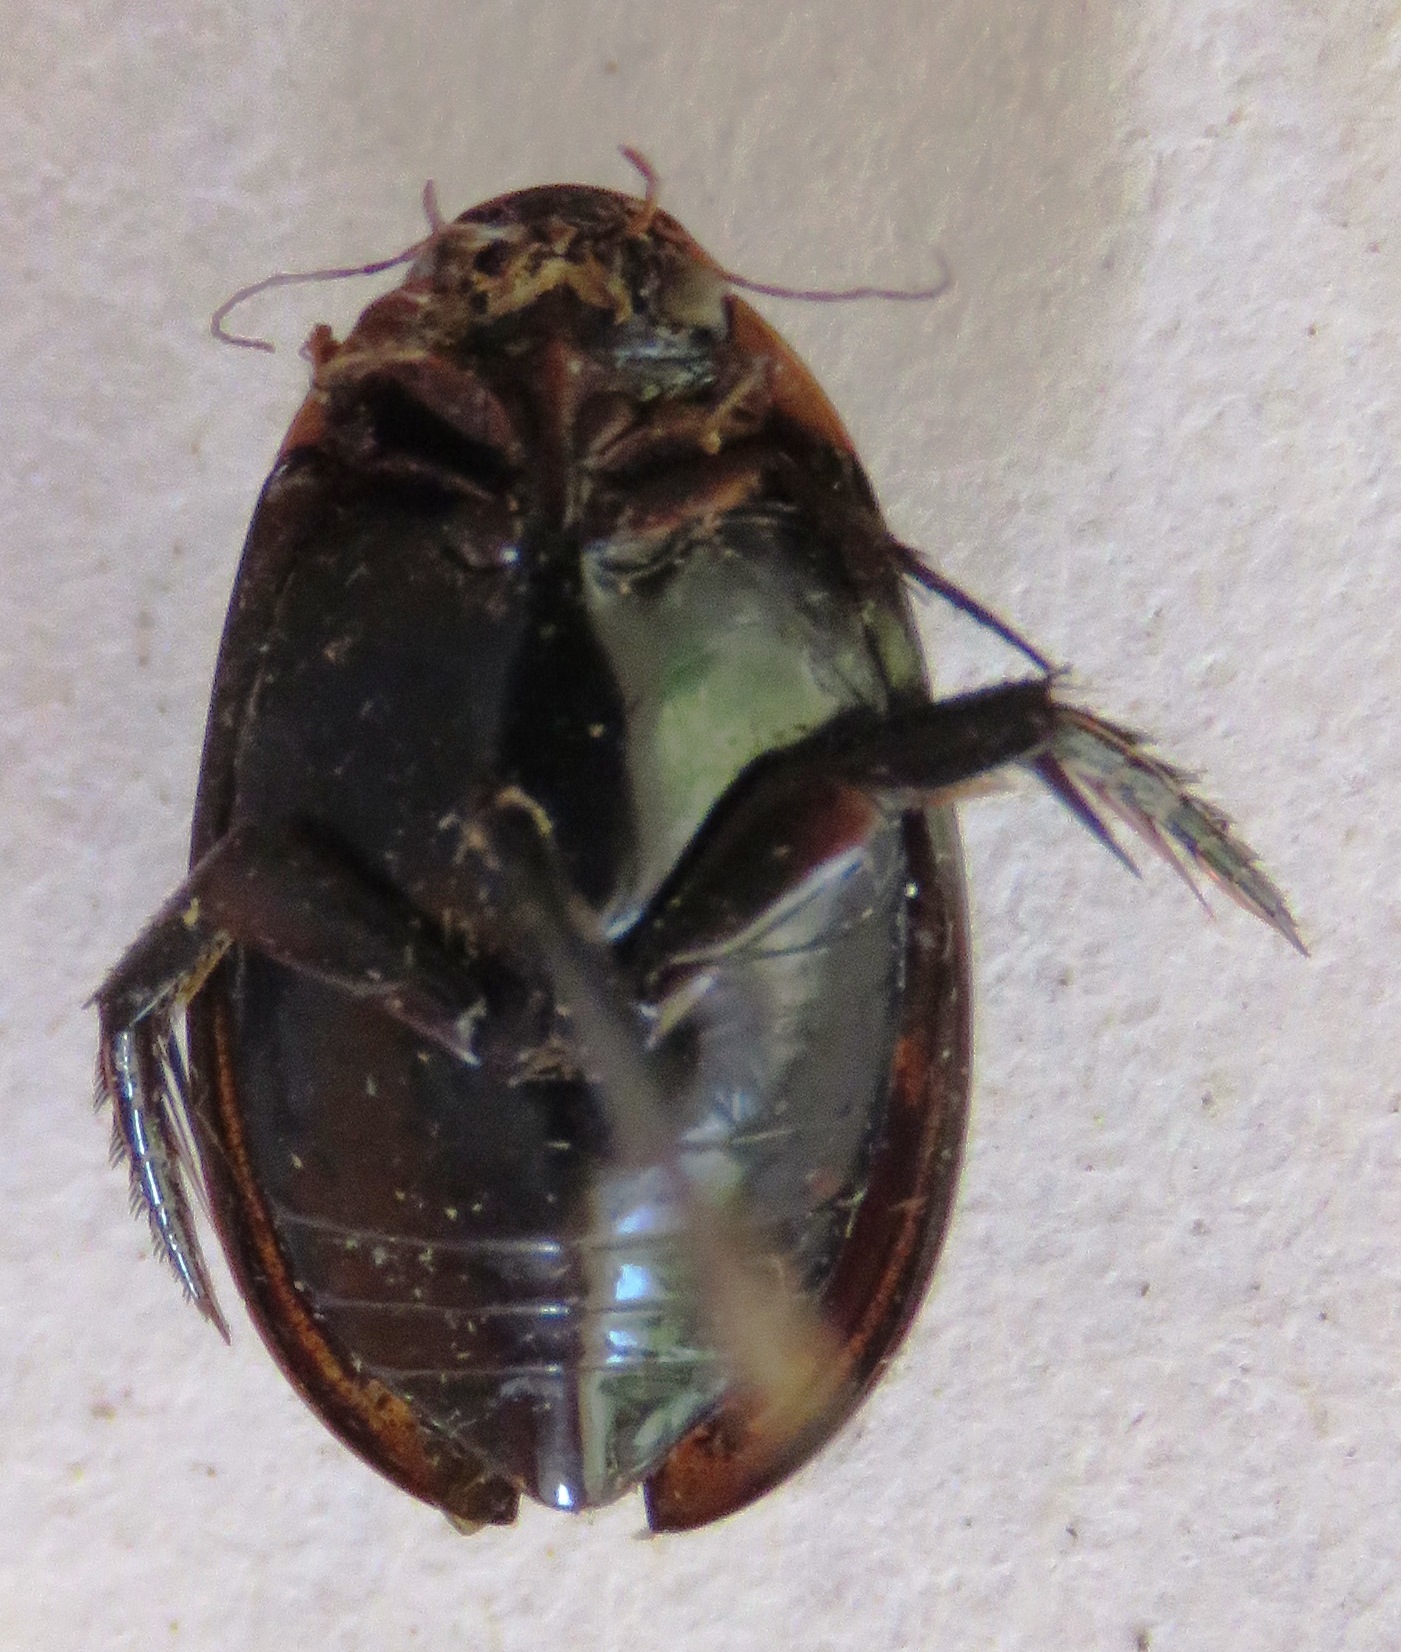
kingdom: Animalia
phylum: Arthropoda
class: Insecta
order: Coleoptera
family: Dytiscidae
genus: Hydaticus
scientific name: Hydaticus
